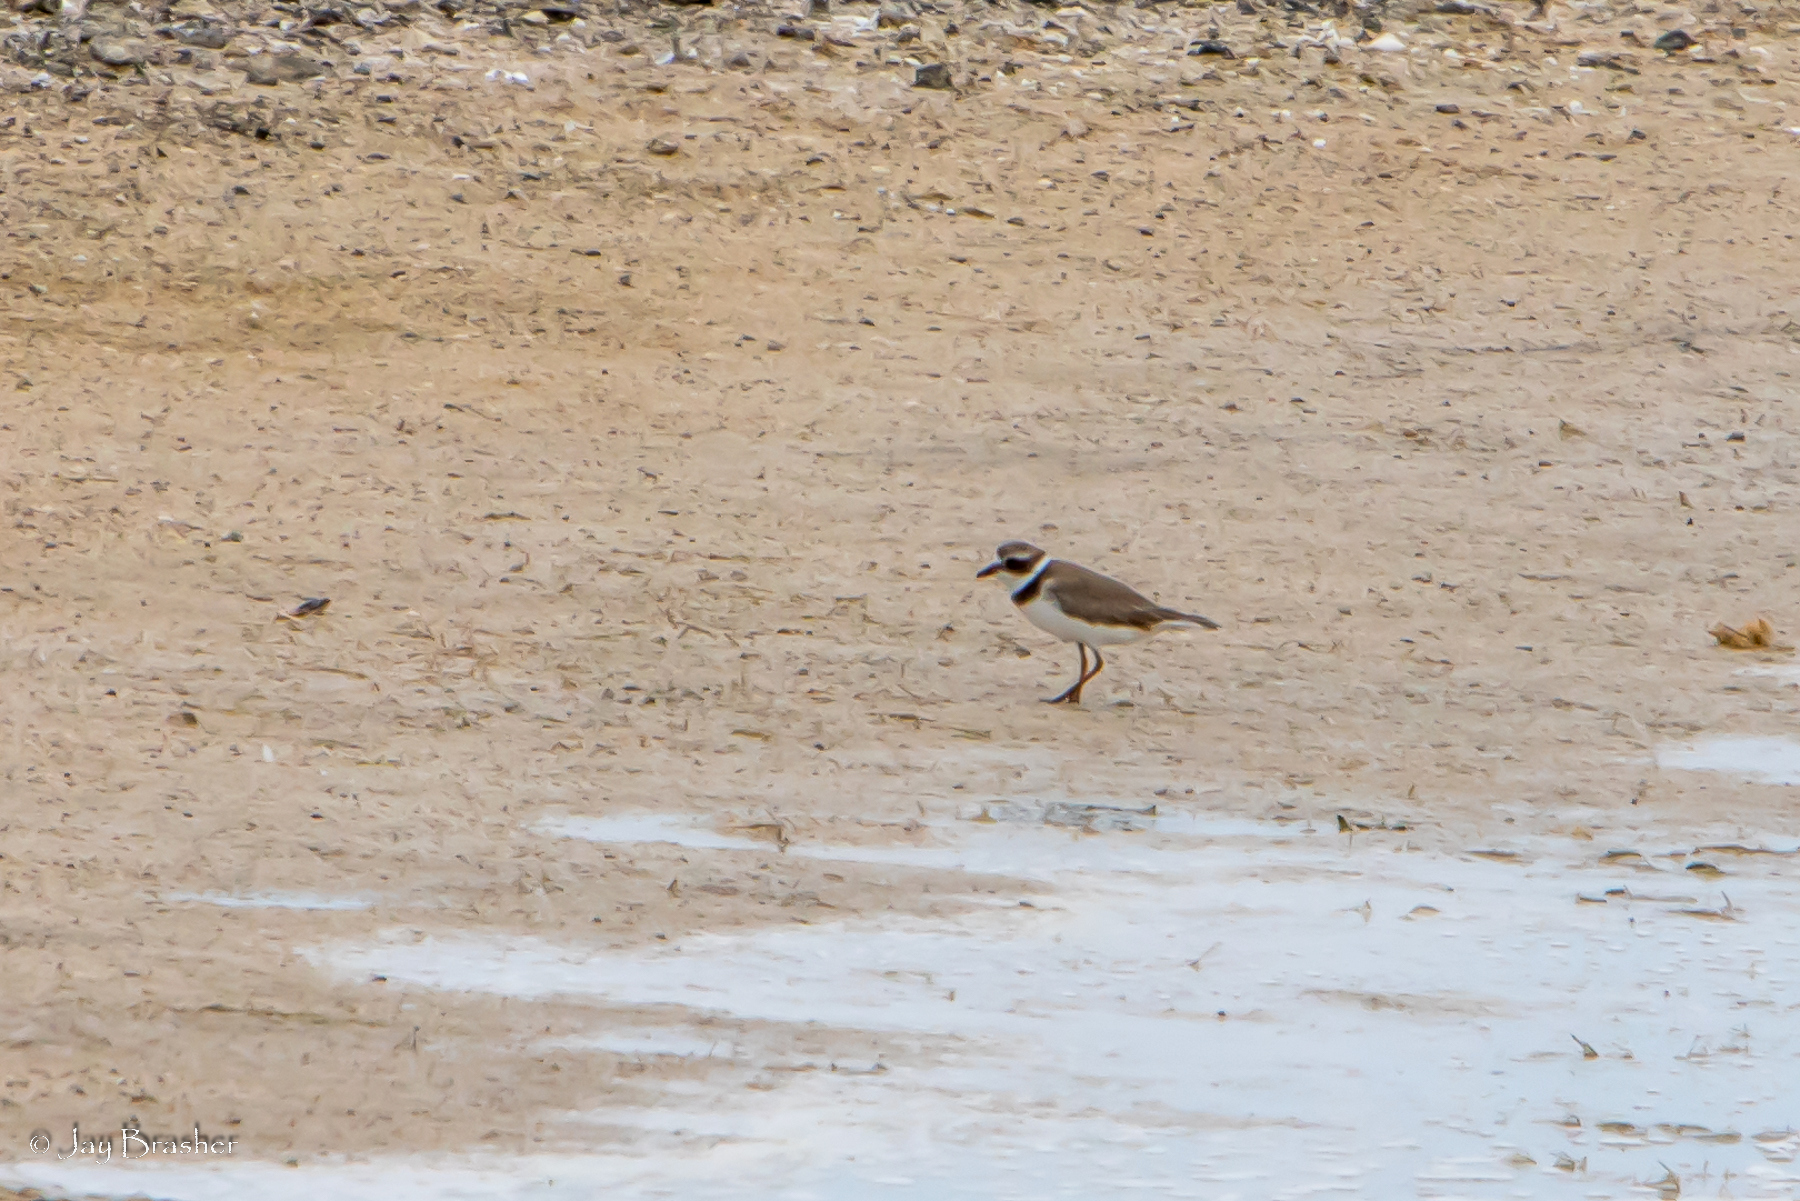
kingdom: Animalia
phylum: Chordata
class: Aves
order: Charadriiformes
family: Charadriidae
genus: Charadrius
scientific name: Charadrius semipalmatus
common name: Semipalmated plover
